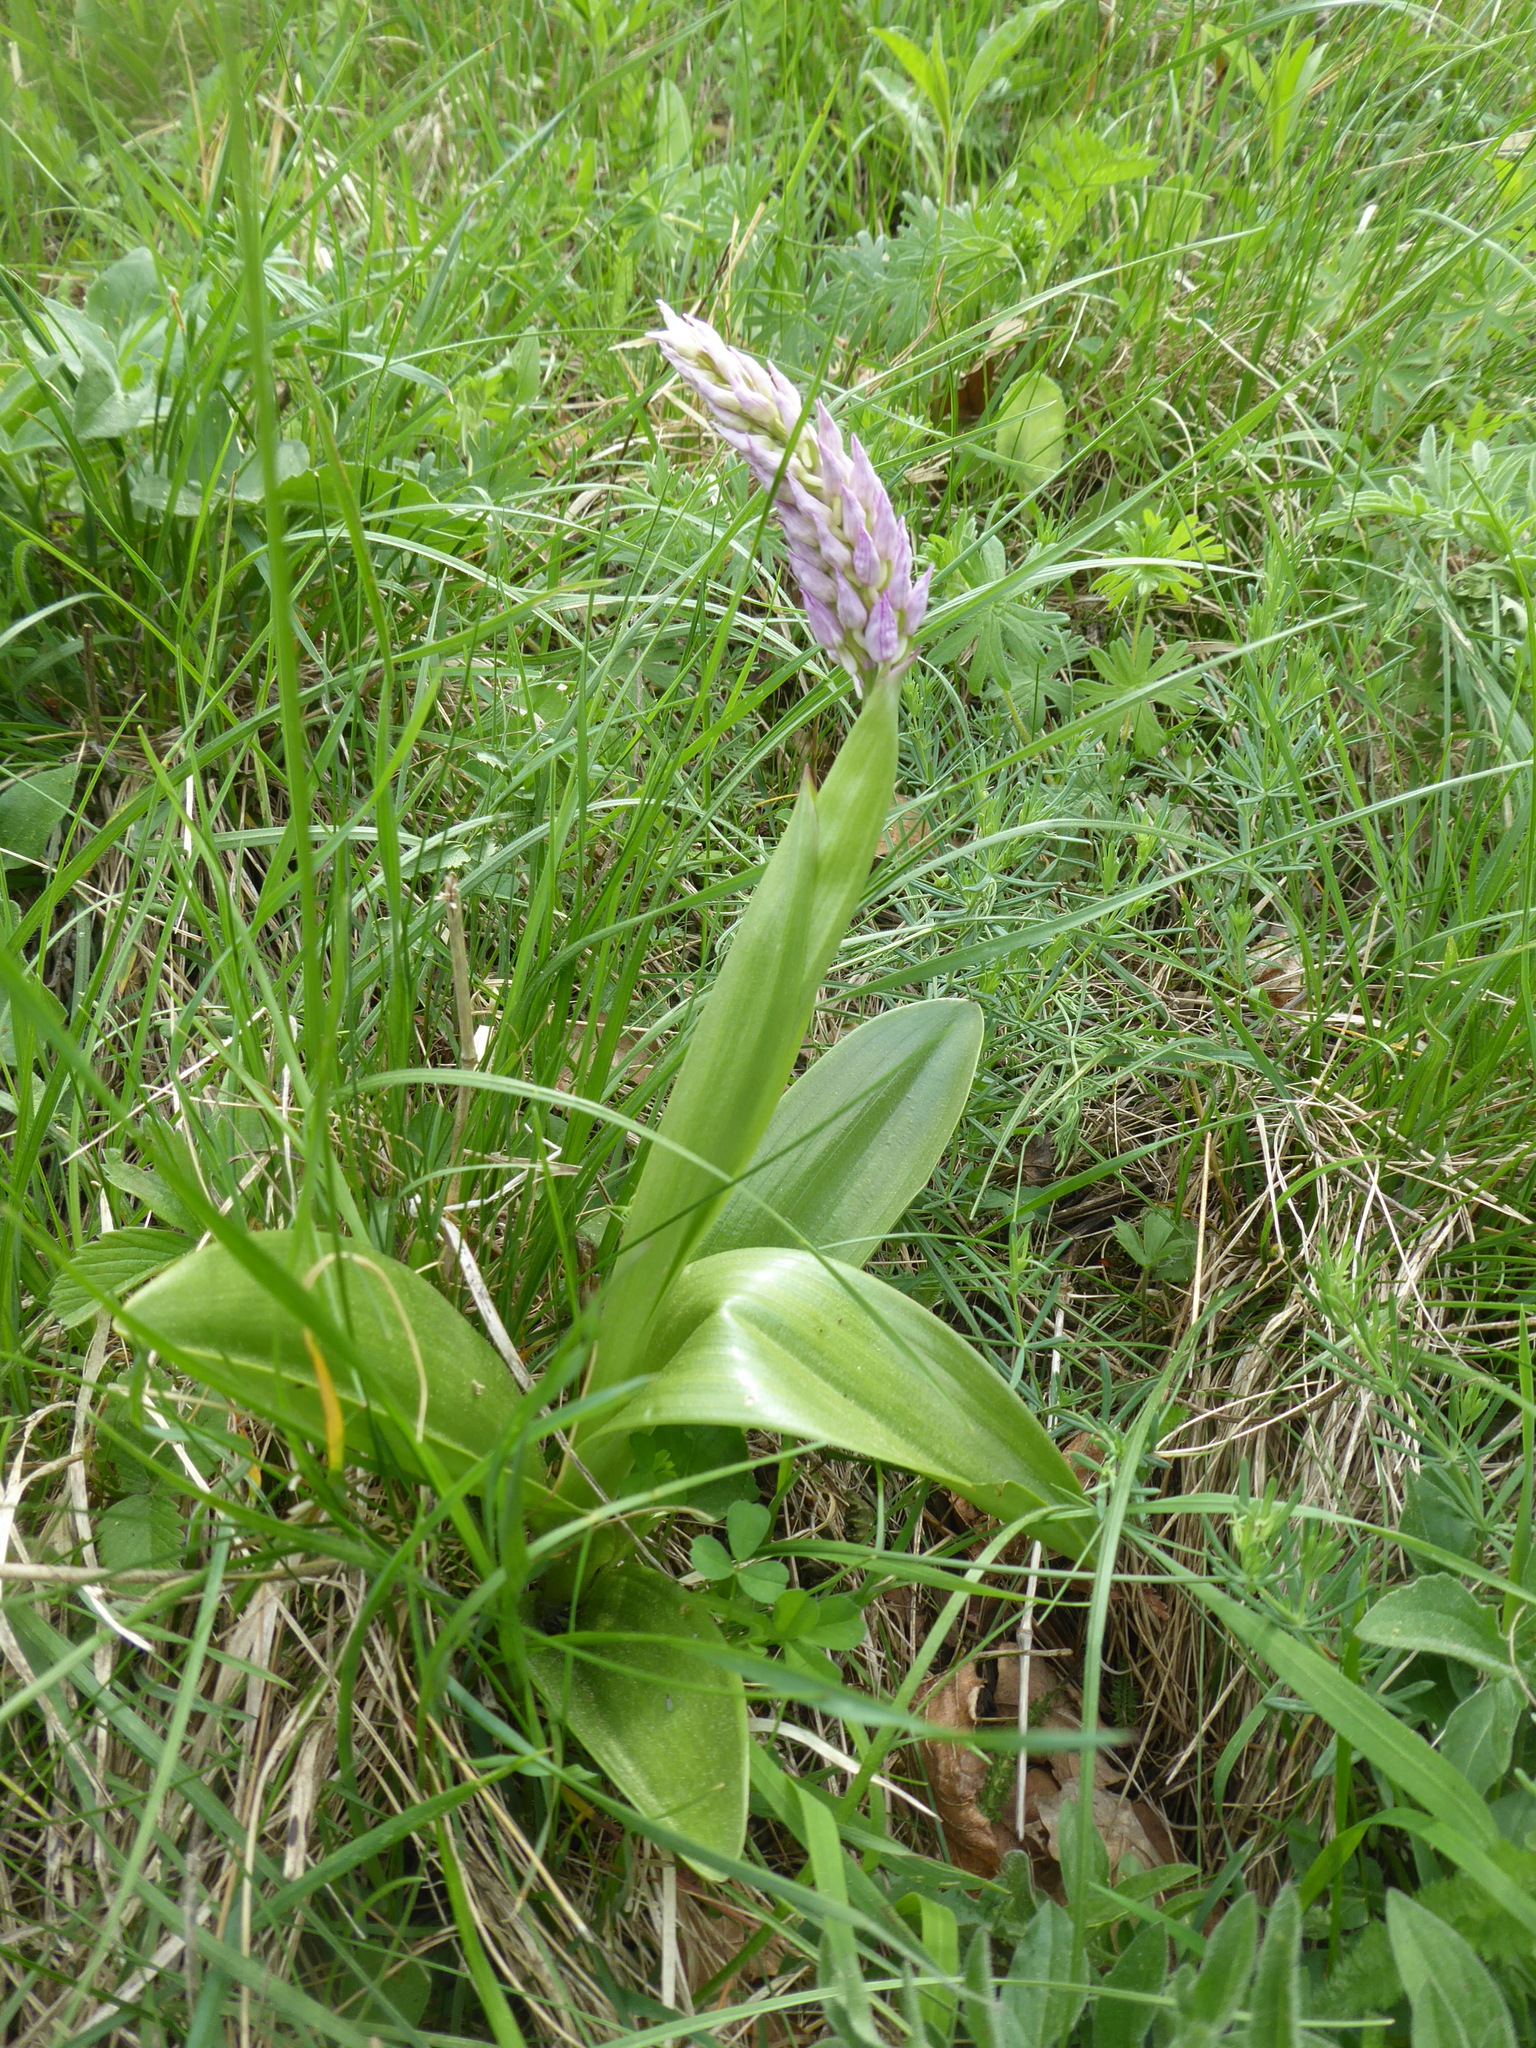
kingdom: Plantae
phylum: Tracheophyta
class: Liliopsida
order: Asparagales
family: Orchidaceae
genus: Orchis
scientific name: Orchis militaris
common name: Military orchid
